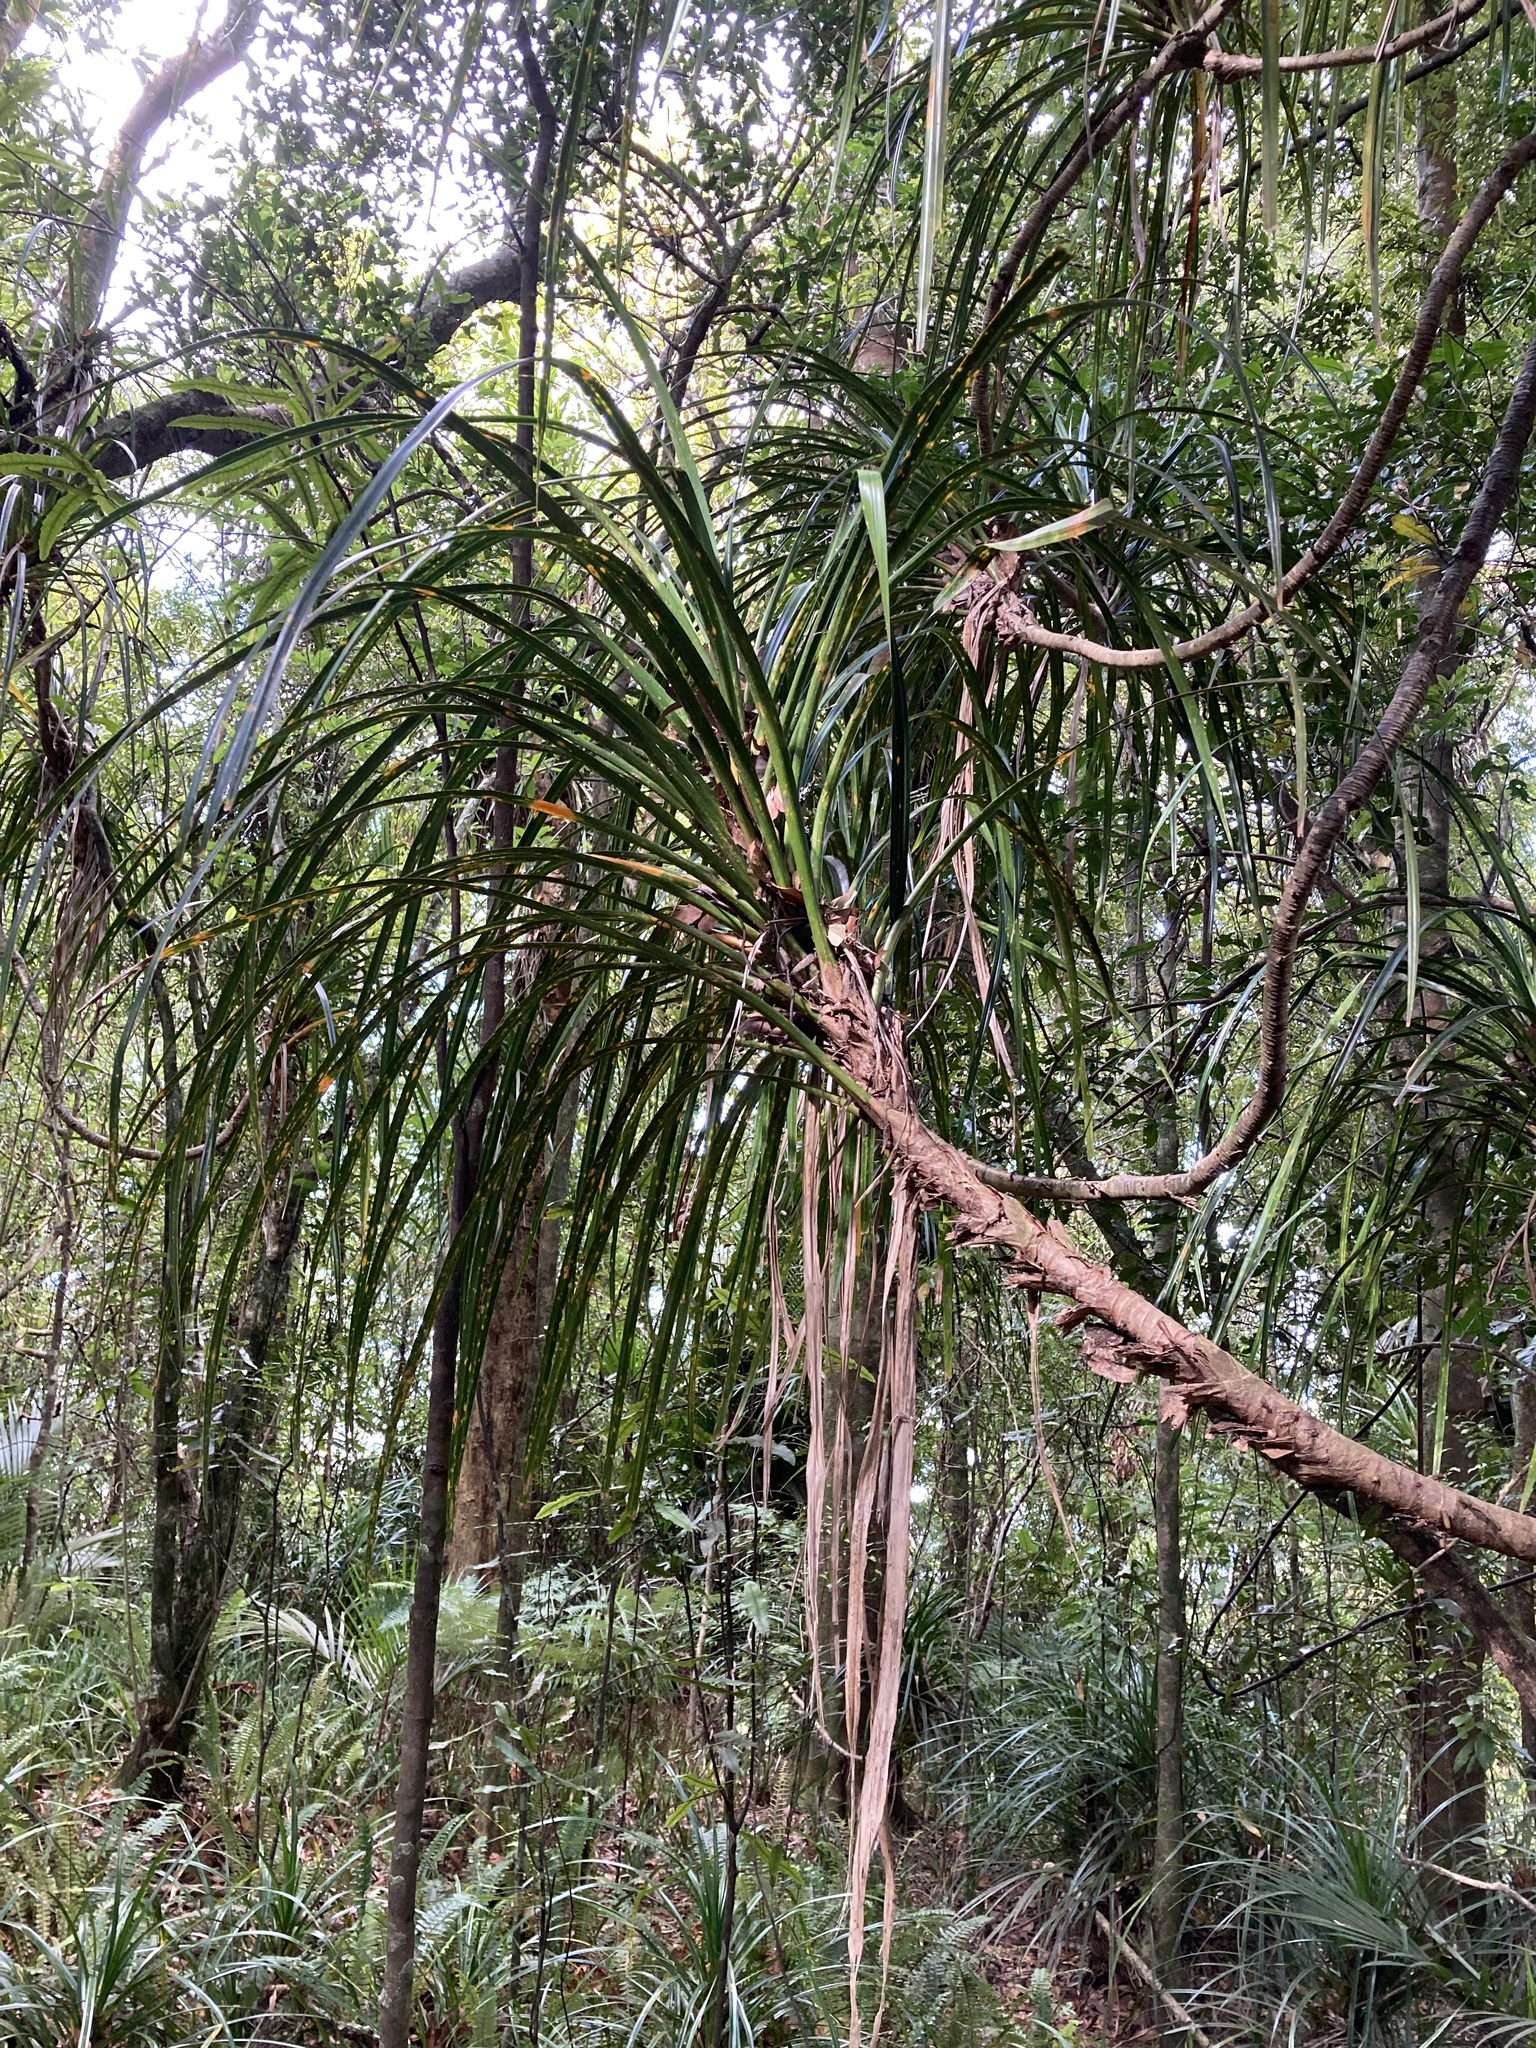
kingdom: Plantae
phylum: Tracheophyta
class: Liliopsida
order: Pandanales
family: Pandanaceae
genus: Freycinetia
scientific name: Freycinetia banksii
